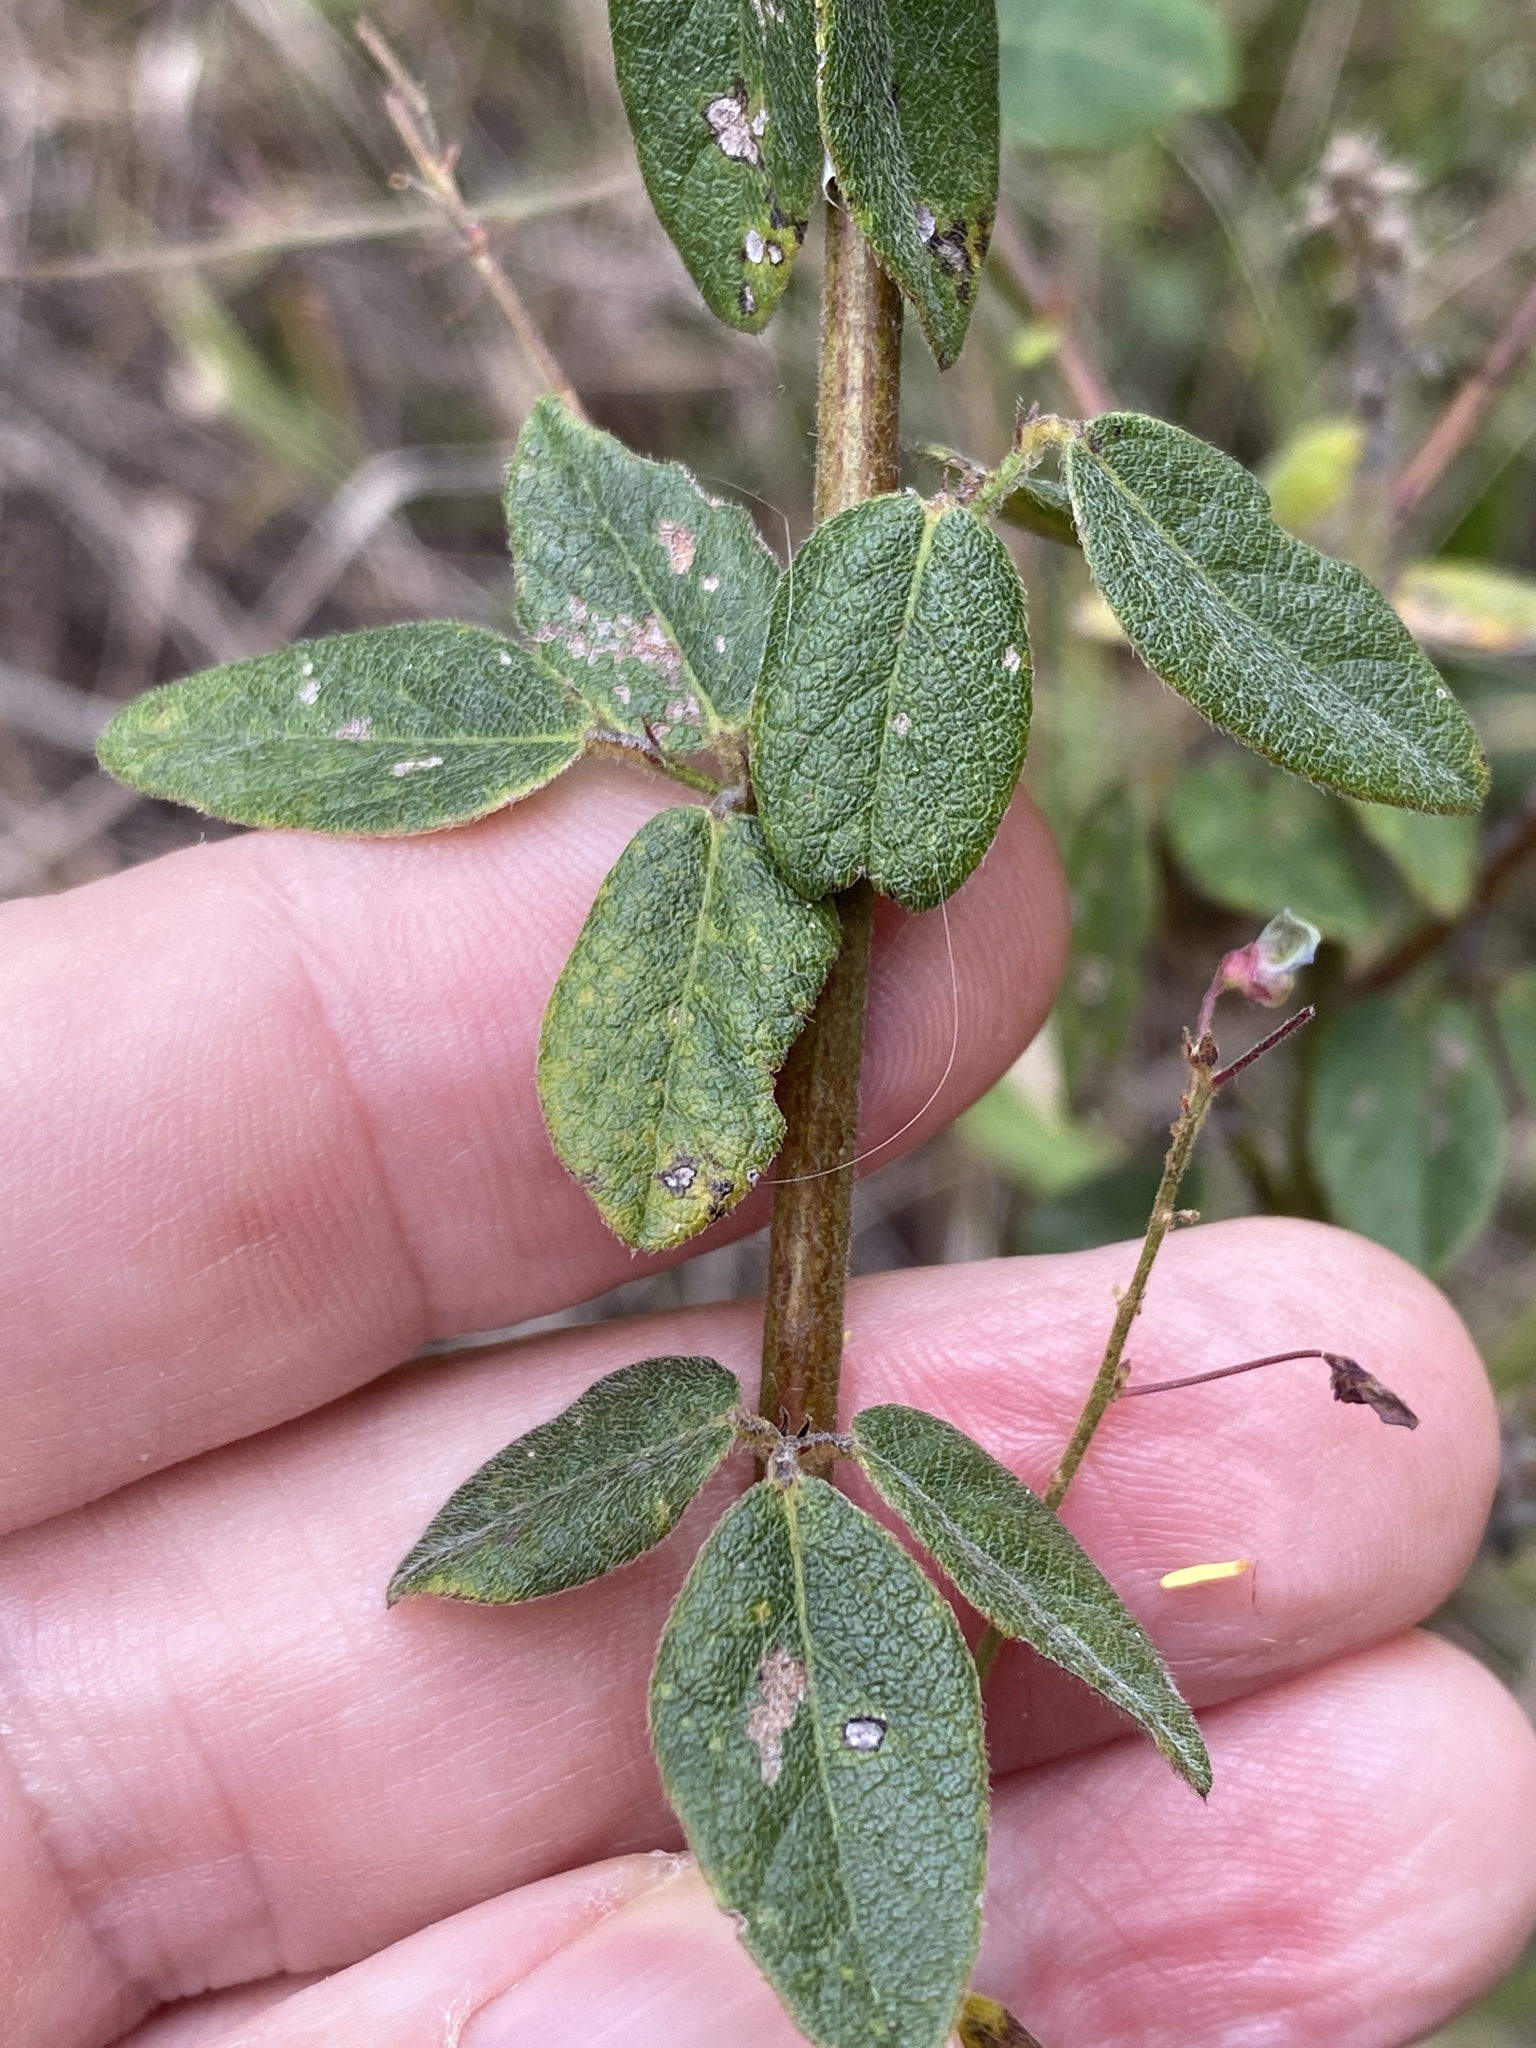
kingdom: Plantae
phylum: Tracheophyta
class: Magnoliopsida
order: Fabales
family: Fabaceae
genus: Desmodium
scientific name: Desmodium ciliare
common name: Hairy small-leaf ticktrefoil
